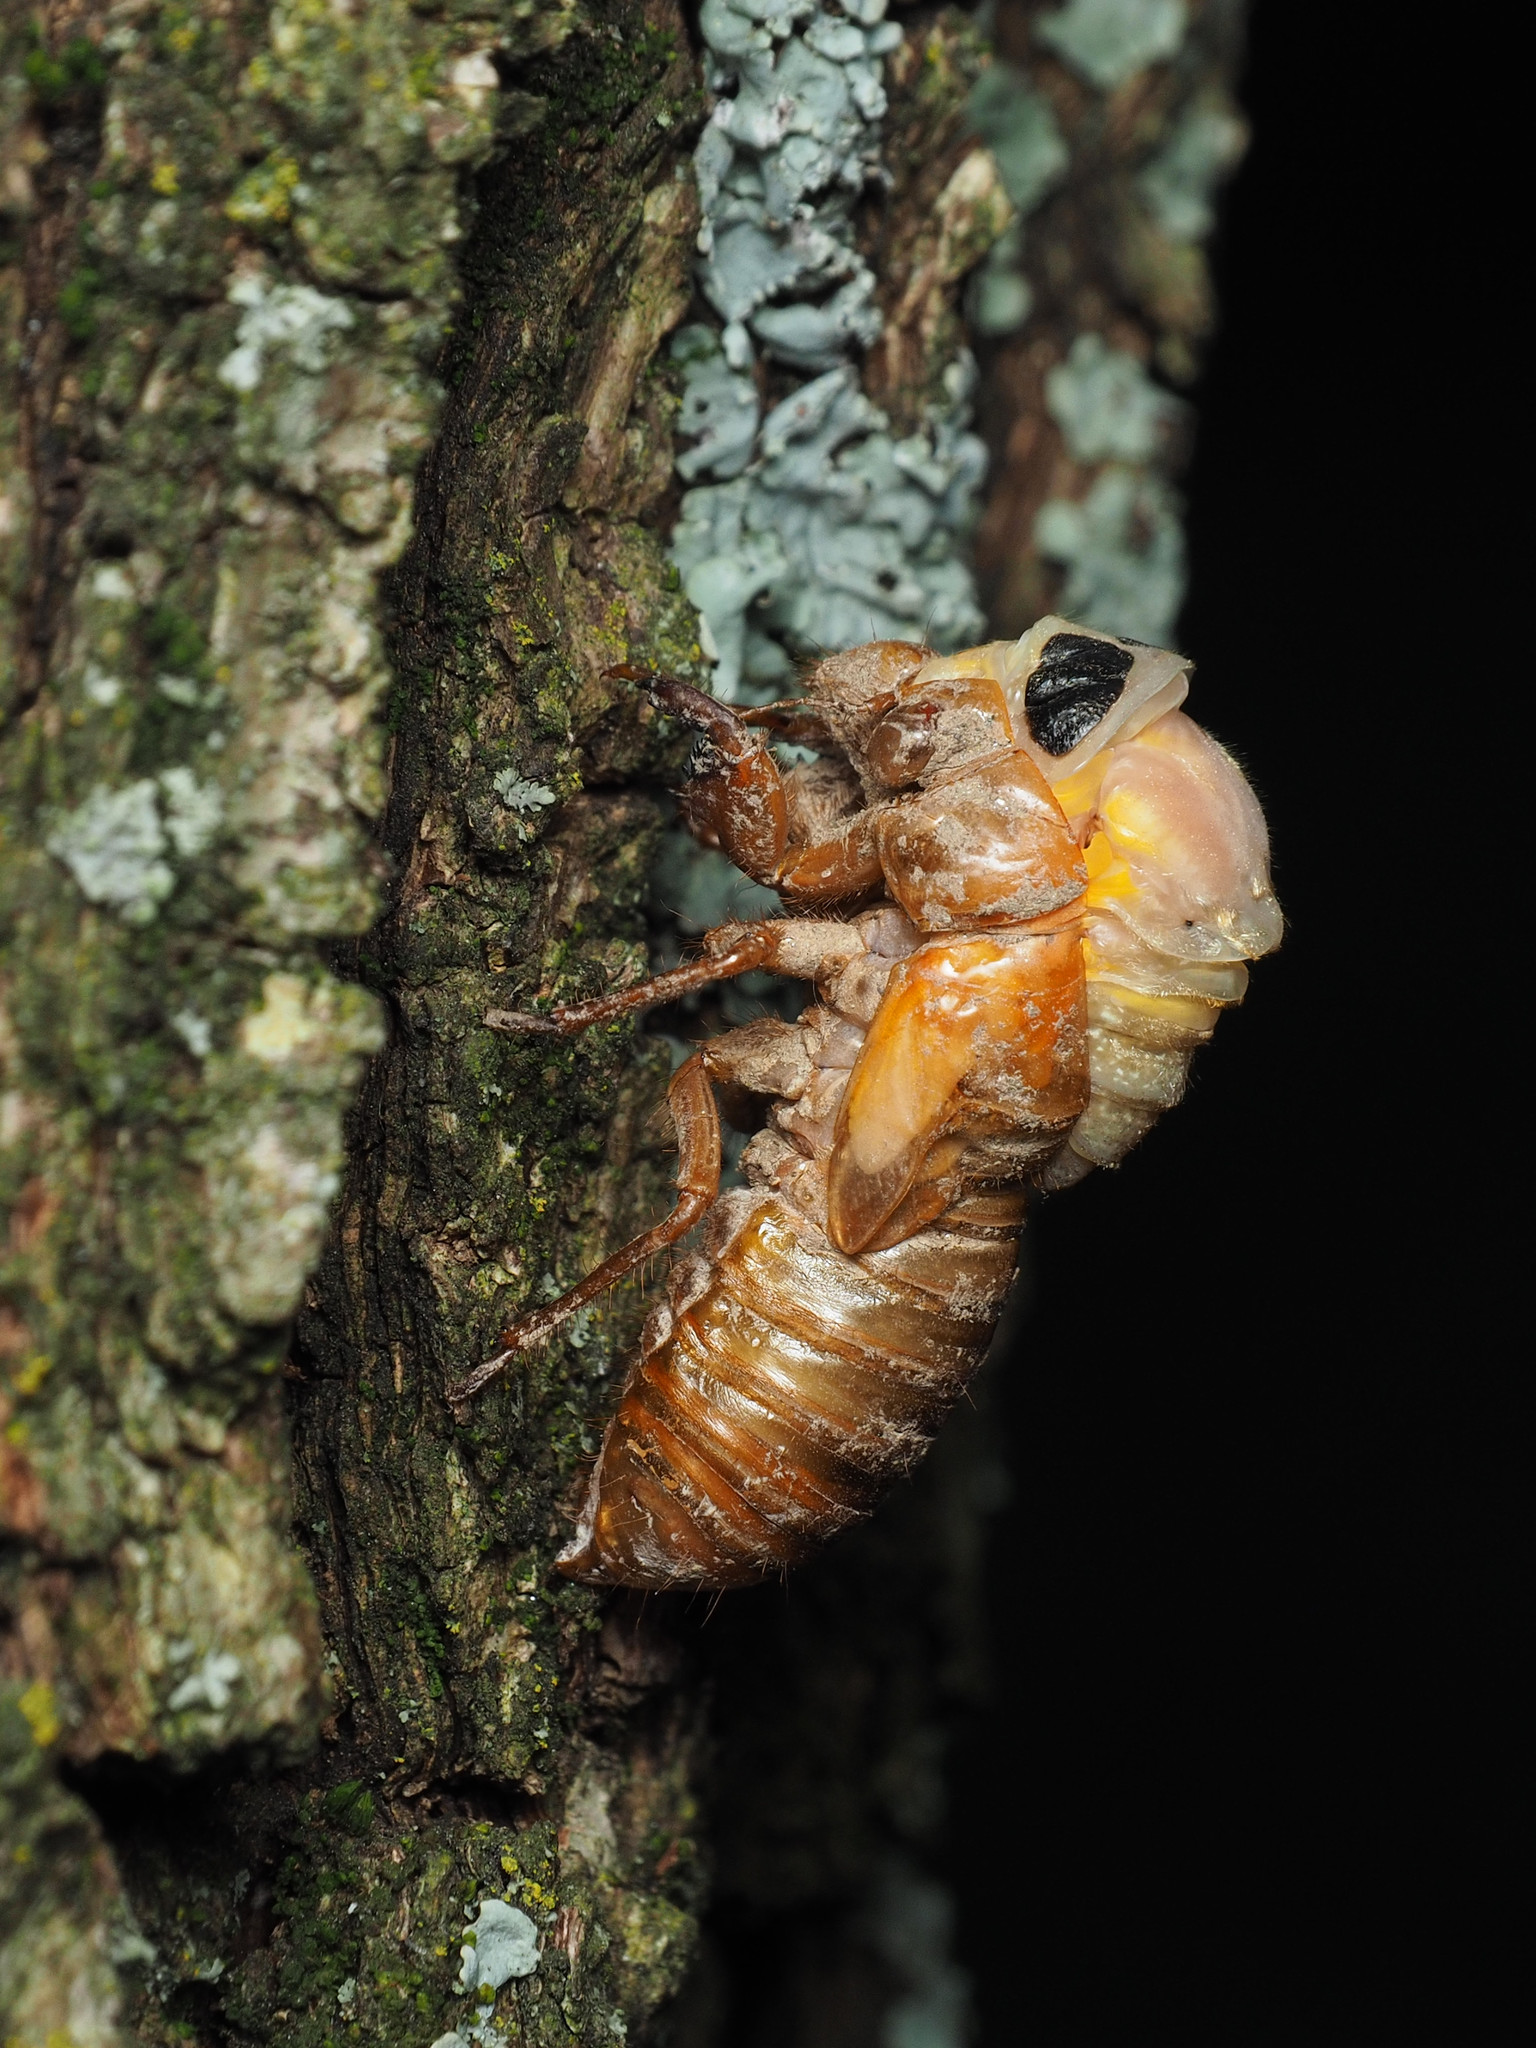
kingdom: Animalia
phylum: Arthropoda
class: Insecta
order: Hemiptera
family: Cicadidae
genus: Magicicada
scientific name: Magicicada
